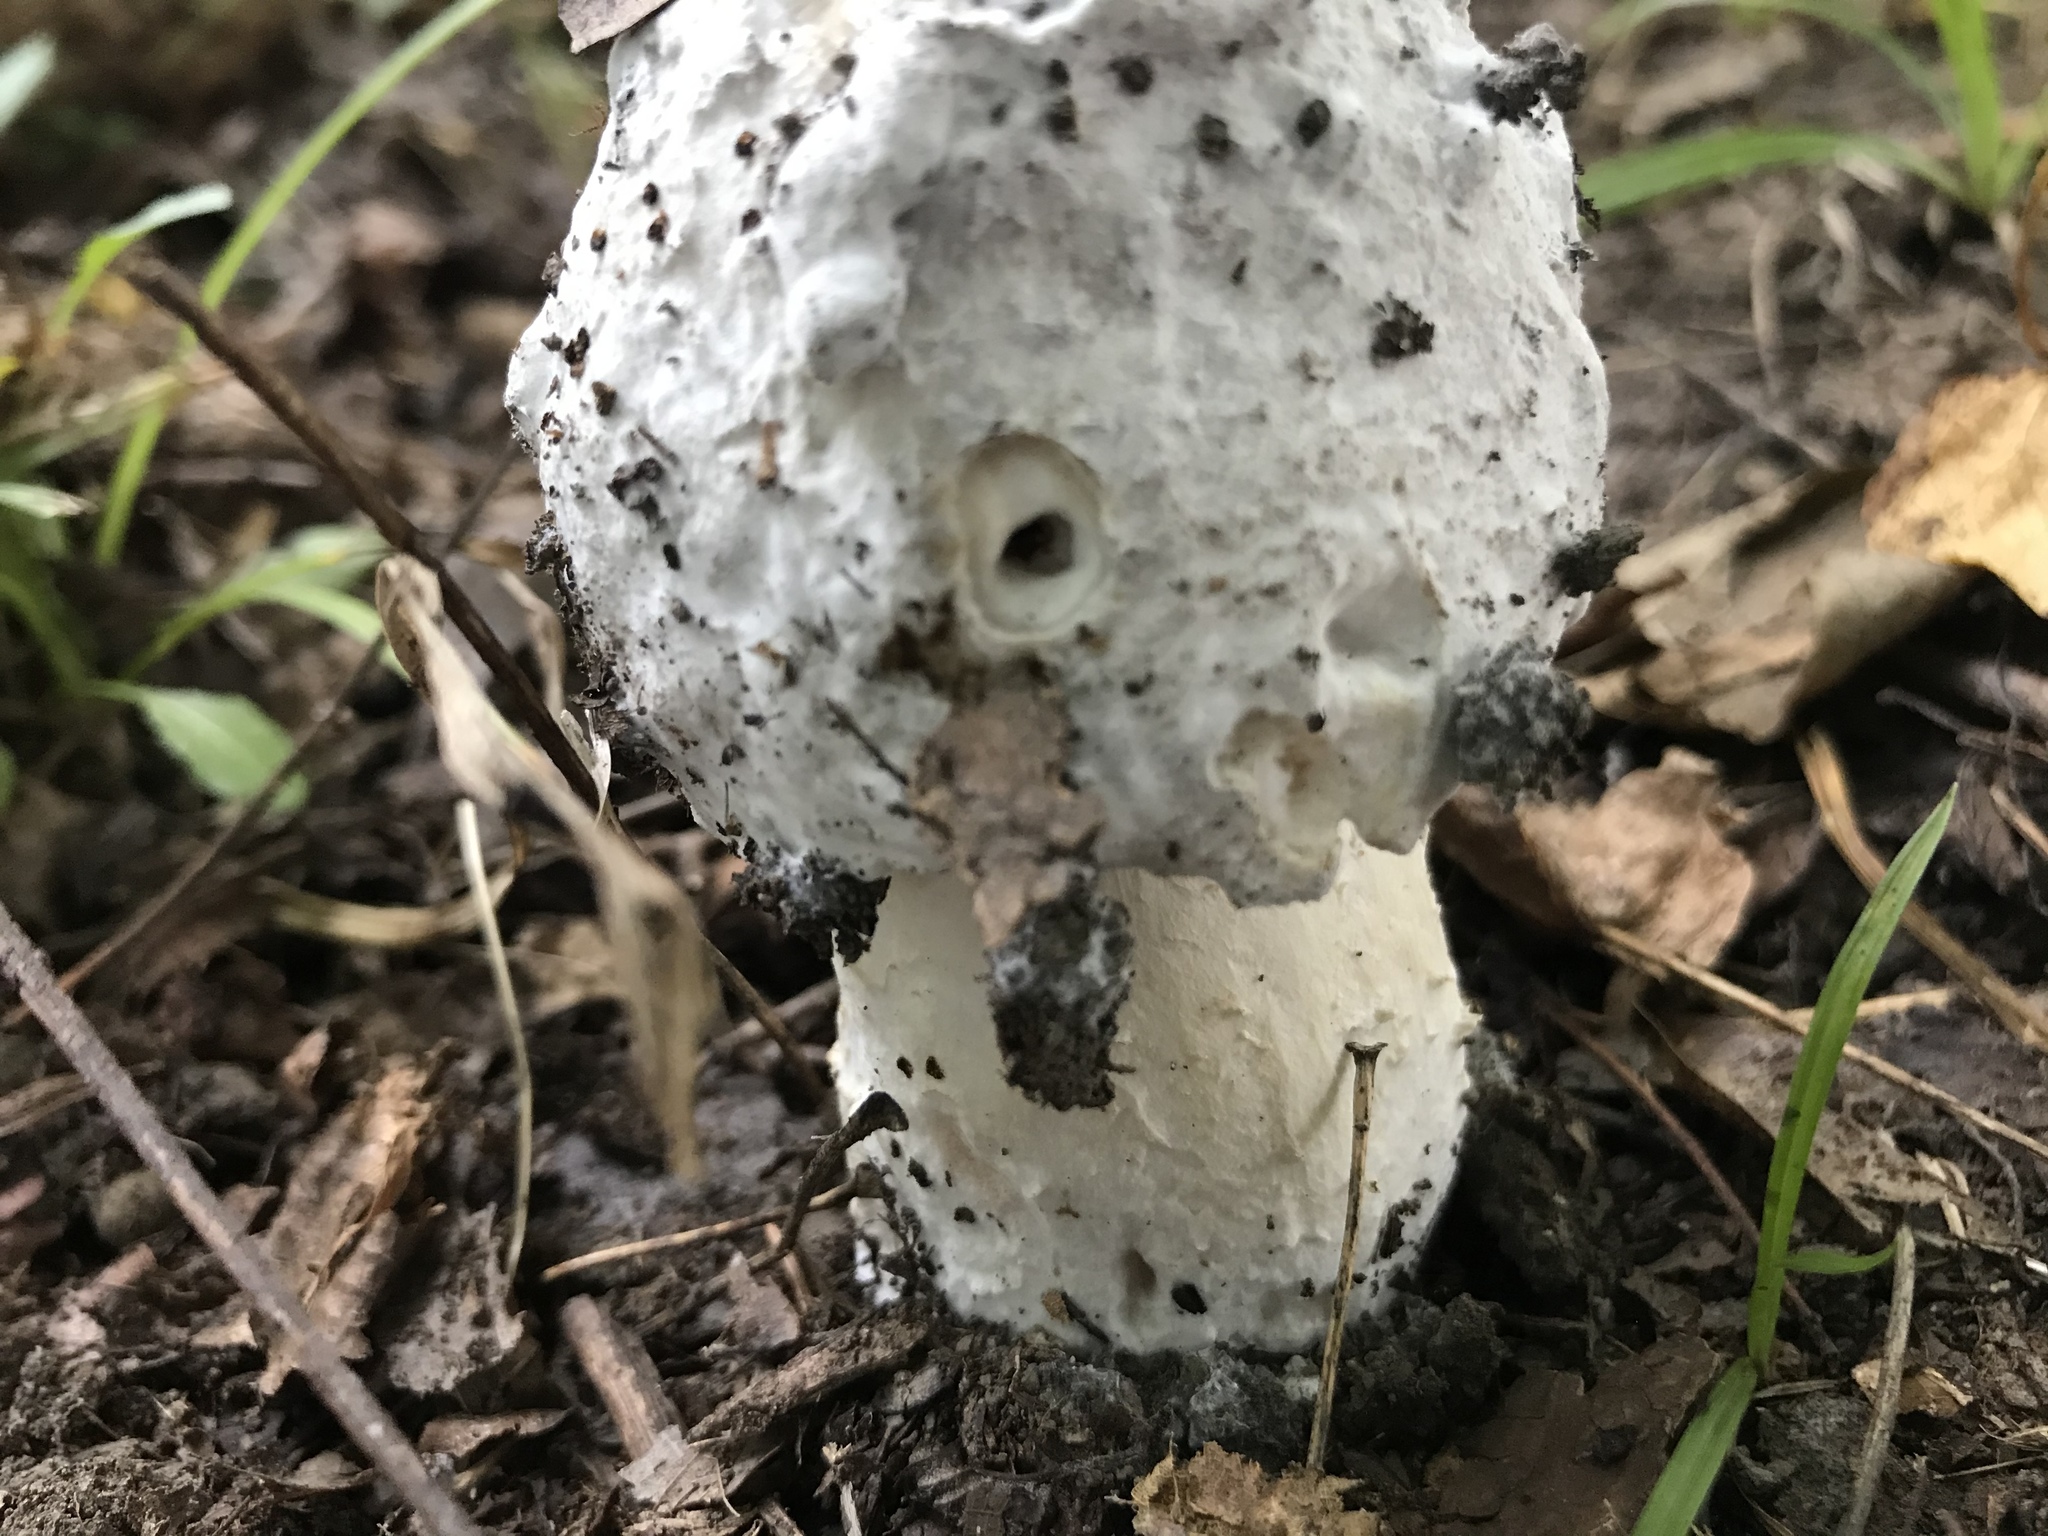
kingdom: Fungi
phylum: Ascomycota
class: Sordariomycetes
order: Hypocreales
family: Hypocreaceae
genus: Hypomyces
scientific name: Hypomyces hyalinus
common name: Amanita mold
